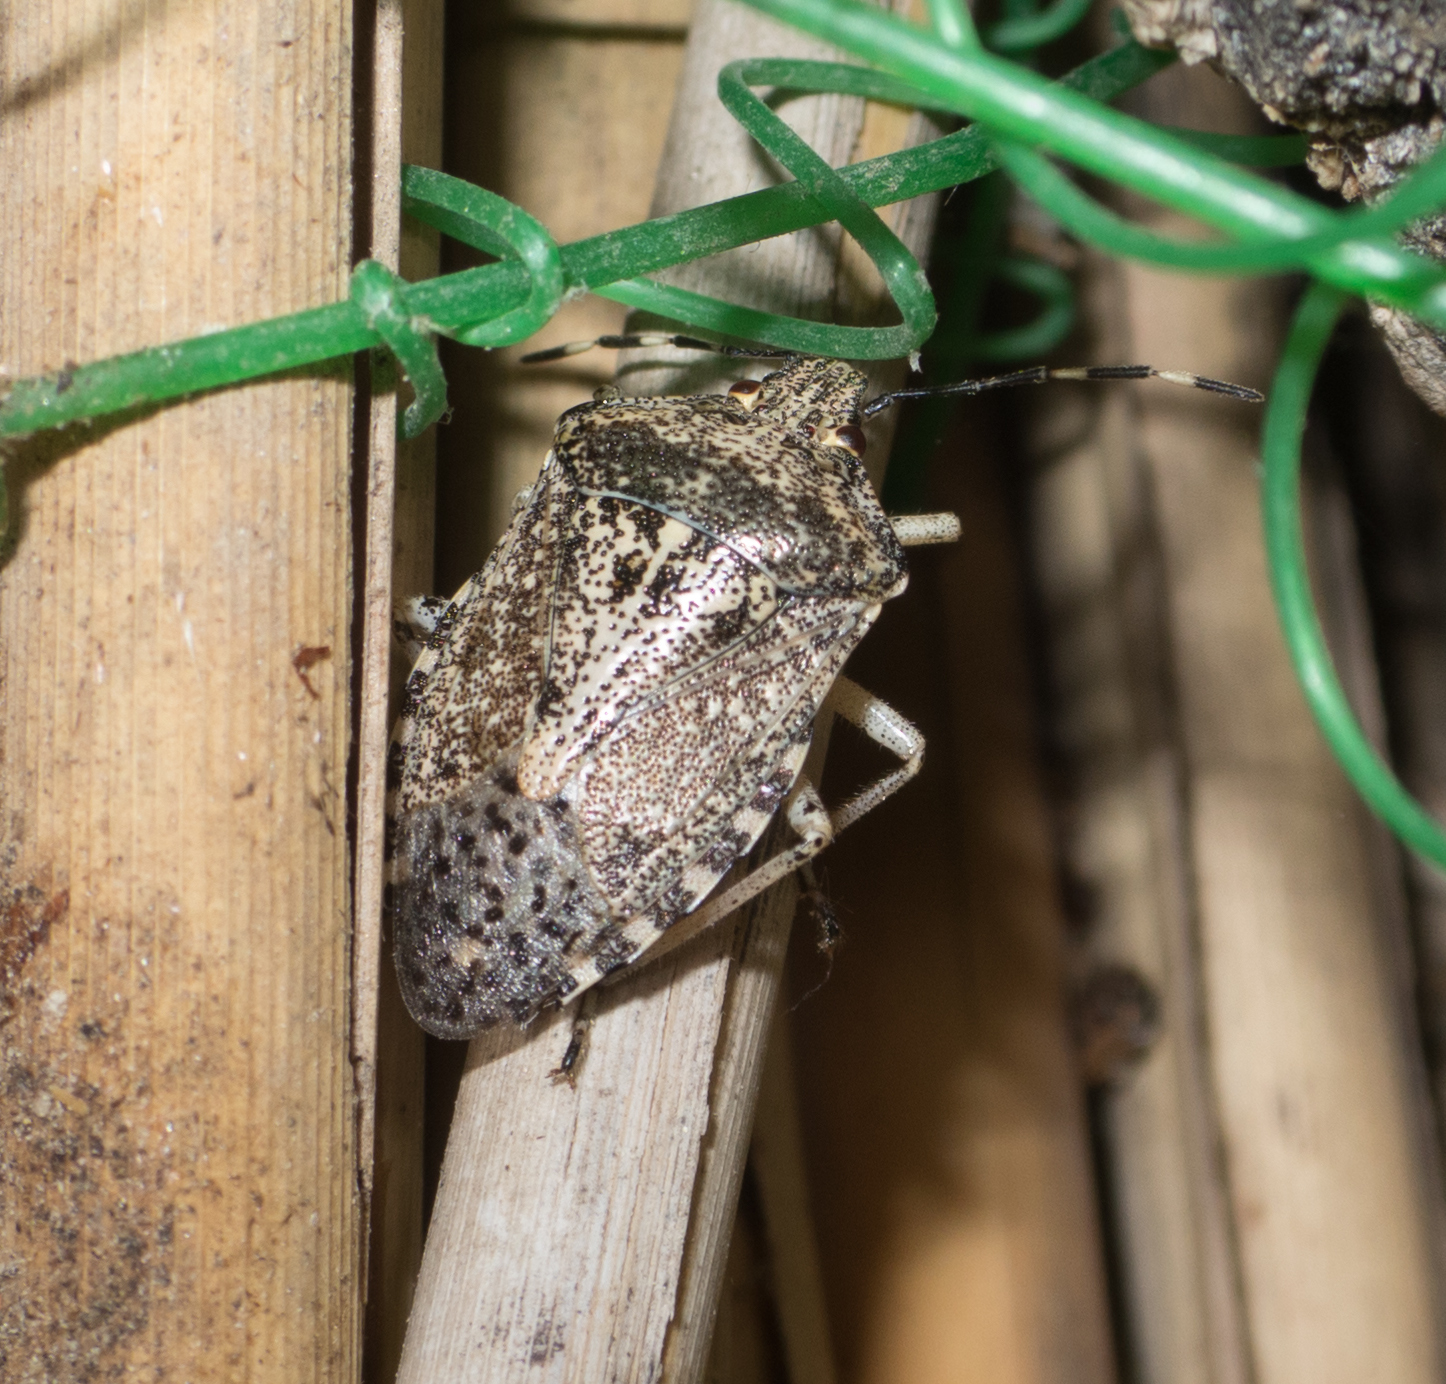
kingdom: Animalia
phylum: Arthropoda
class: Insecta
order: Hemiptera
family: Pentatomidae
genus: Rhaphigaster
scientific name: Rhaphigaster nebulosa
